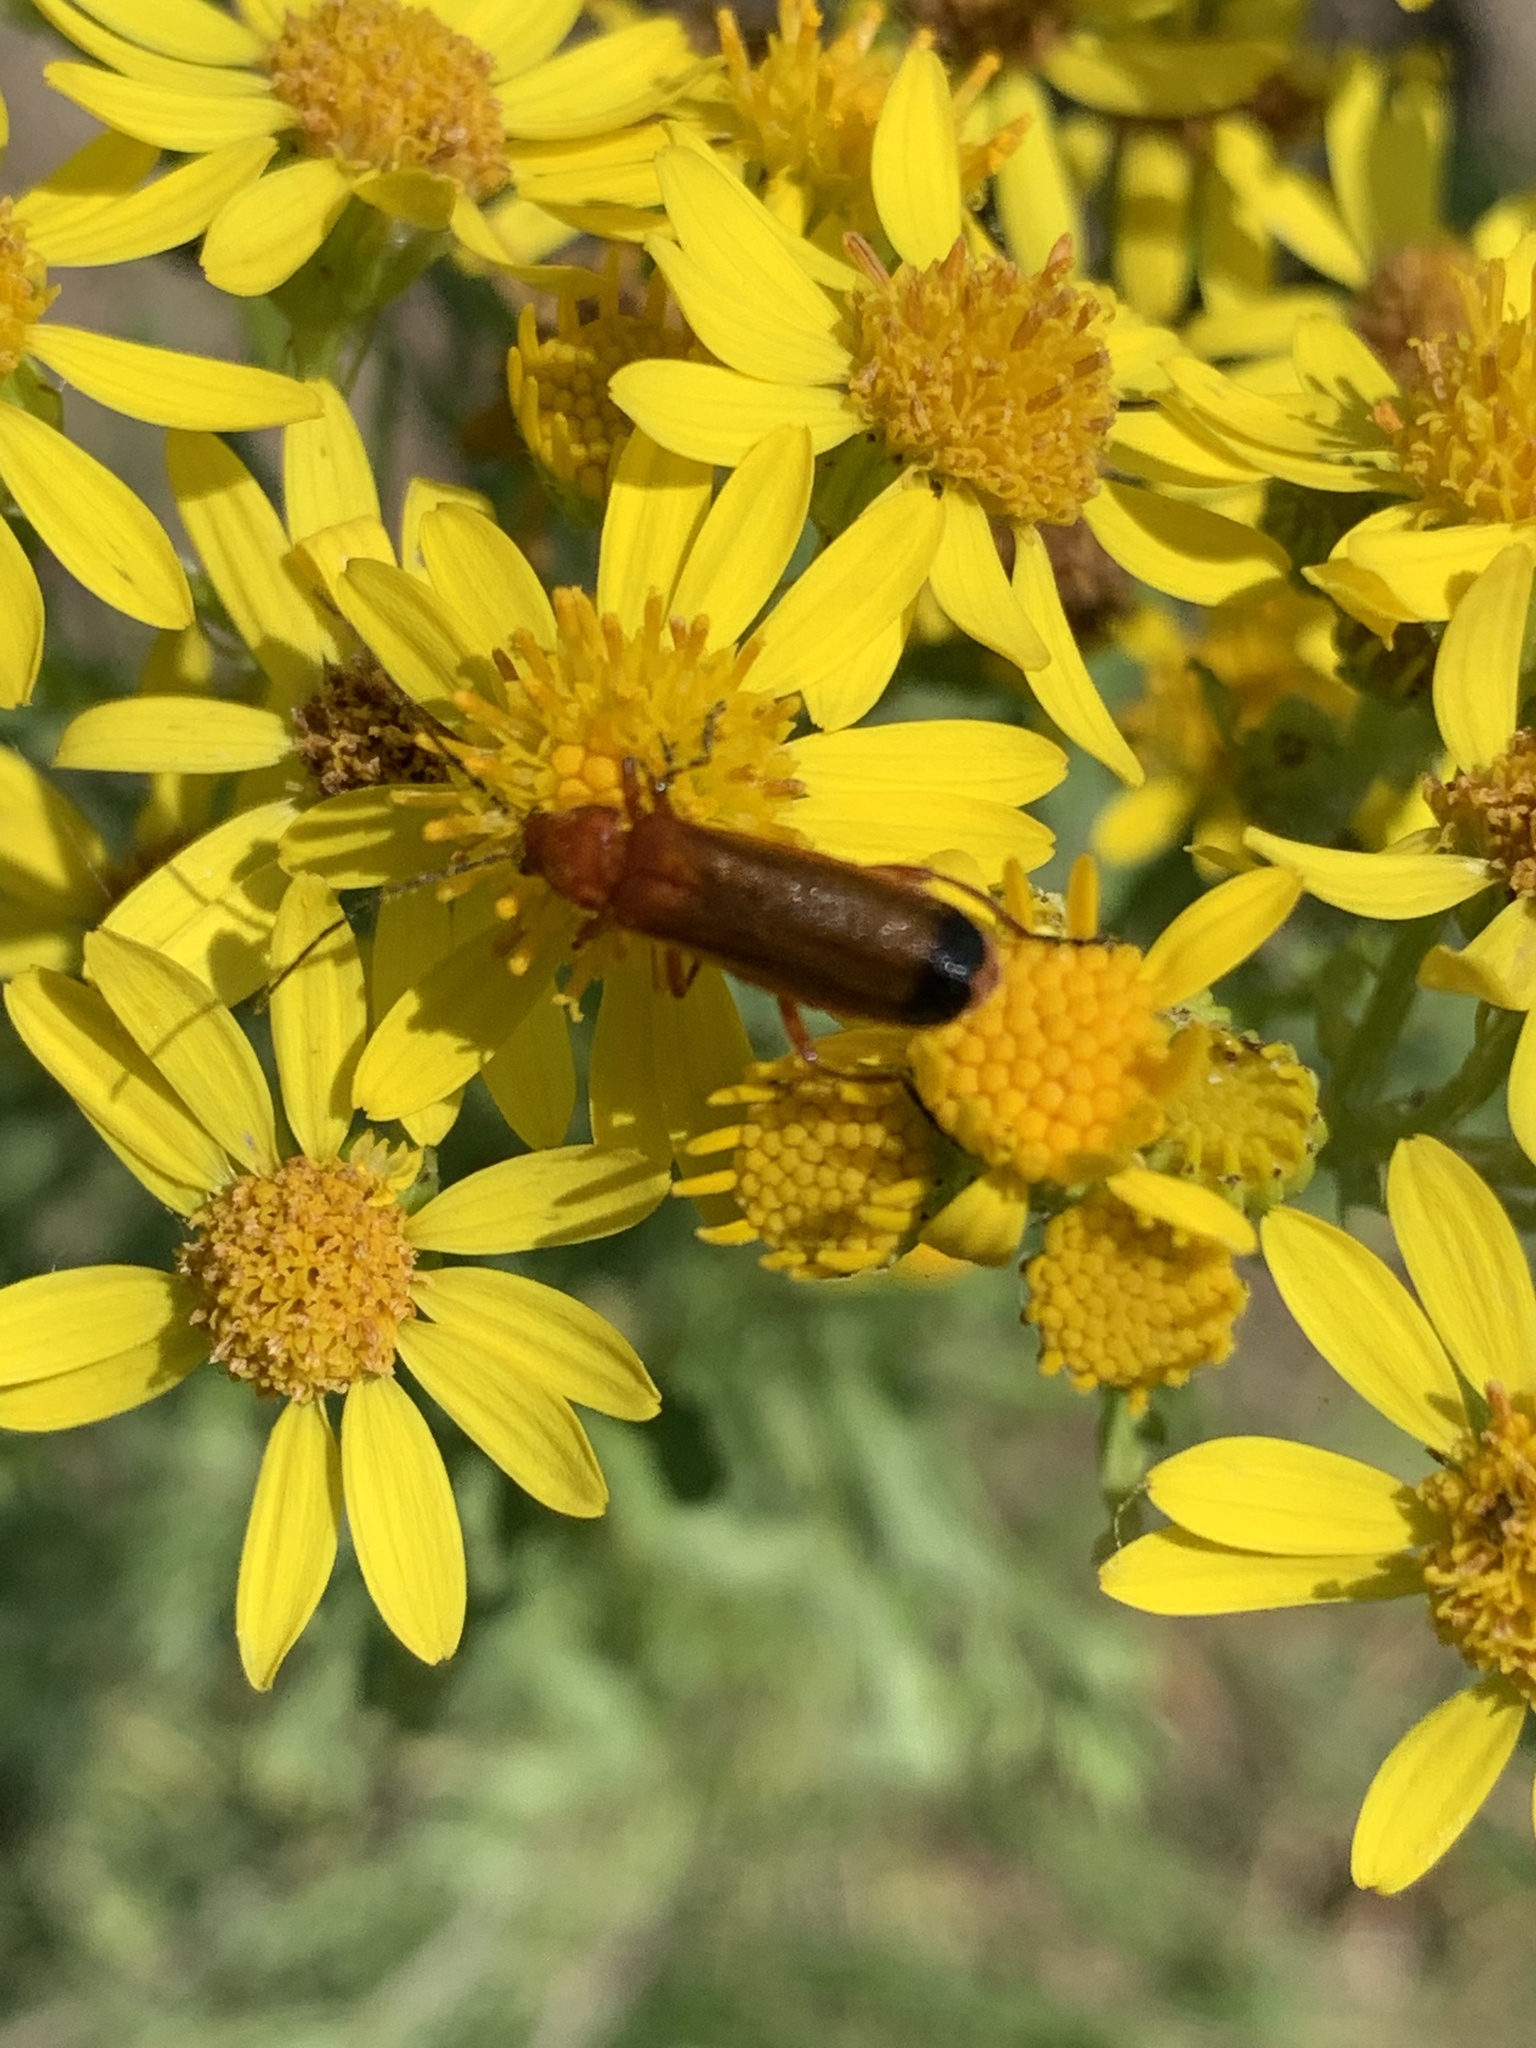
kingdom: Animalia
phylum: Arthropoda
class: Insecta
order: Coleoptera
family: Cantharidae
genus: Rhagonycha
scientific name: Rhagonycha fulva
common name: Common red soldier beetle
